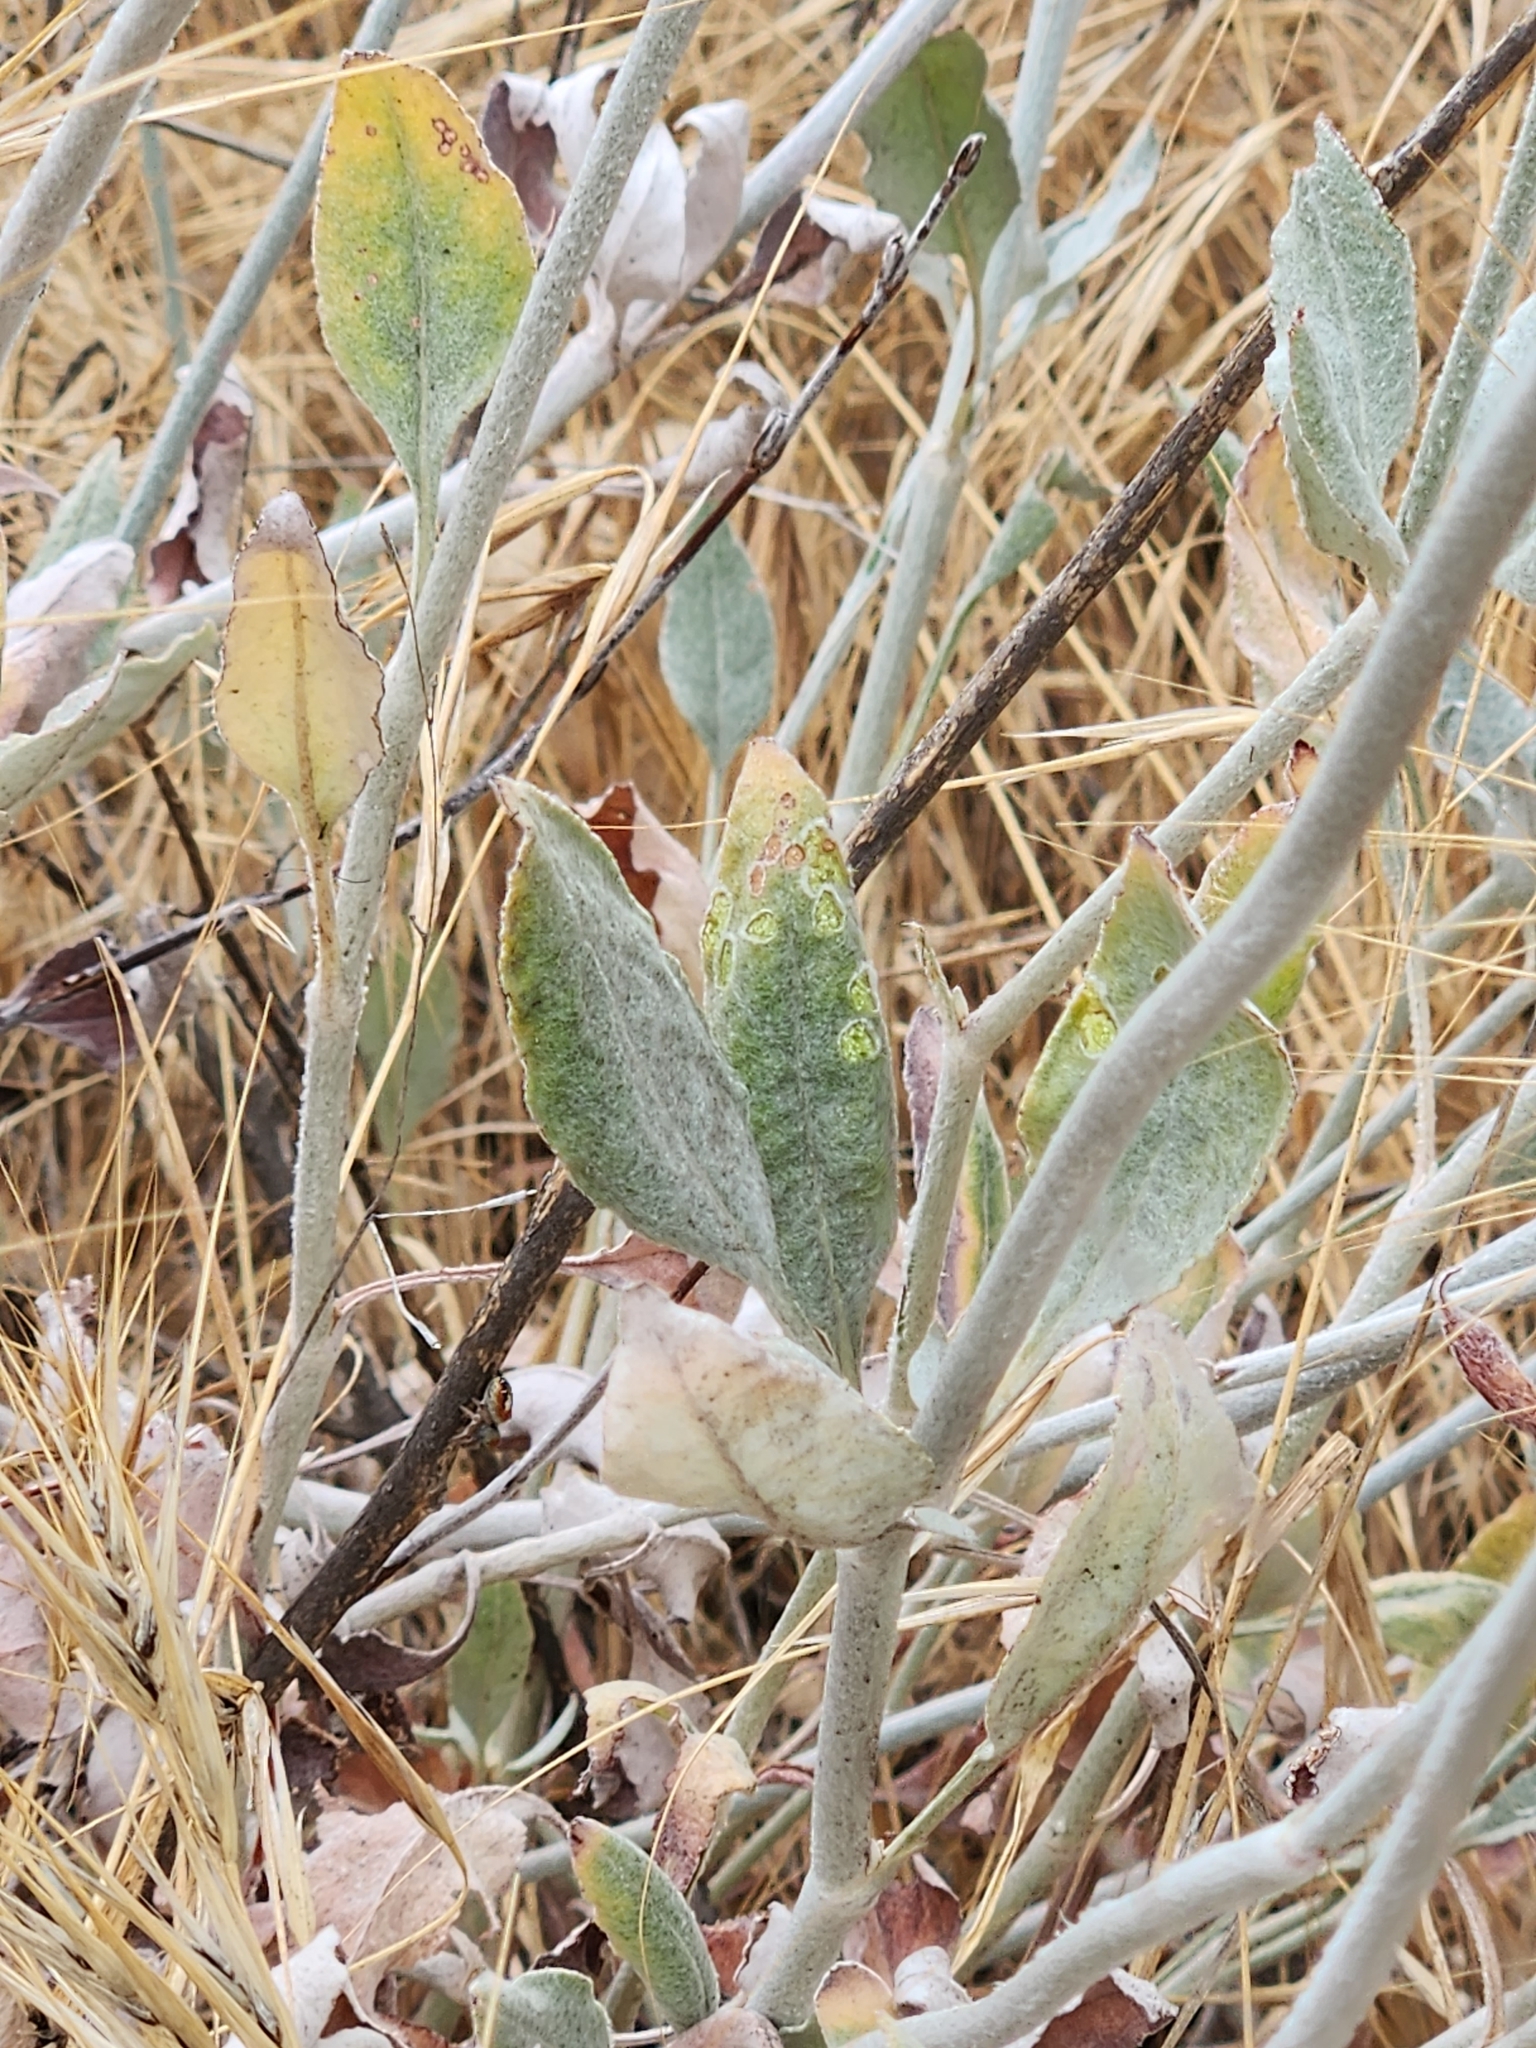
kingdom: Plantae
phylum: Tracheophyta
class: Magnoliopsida
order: Caryophyllales
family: Polygonaceae
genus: Eriogonum
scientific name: Eriogonum elongatum
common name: Long-stem wild buckwheat
